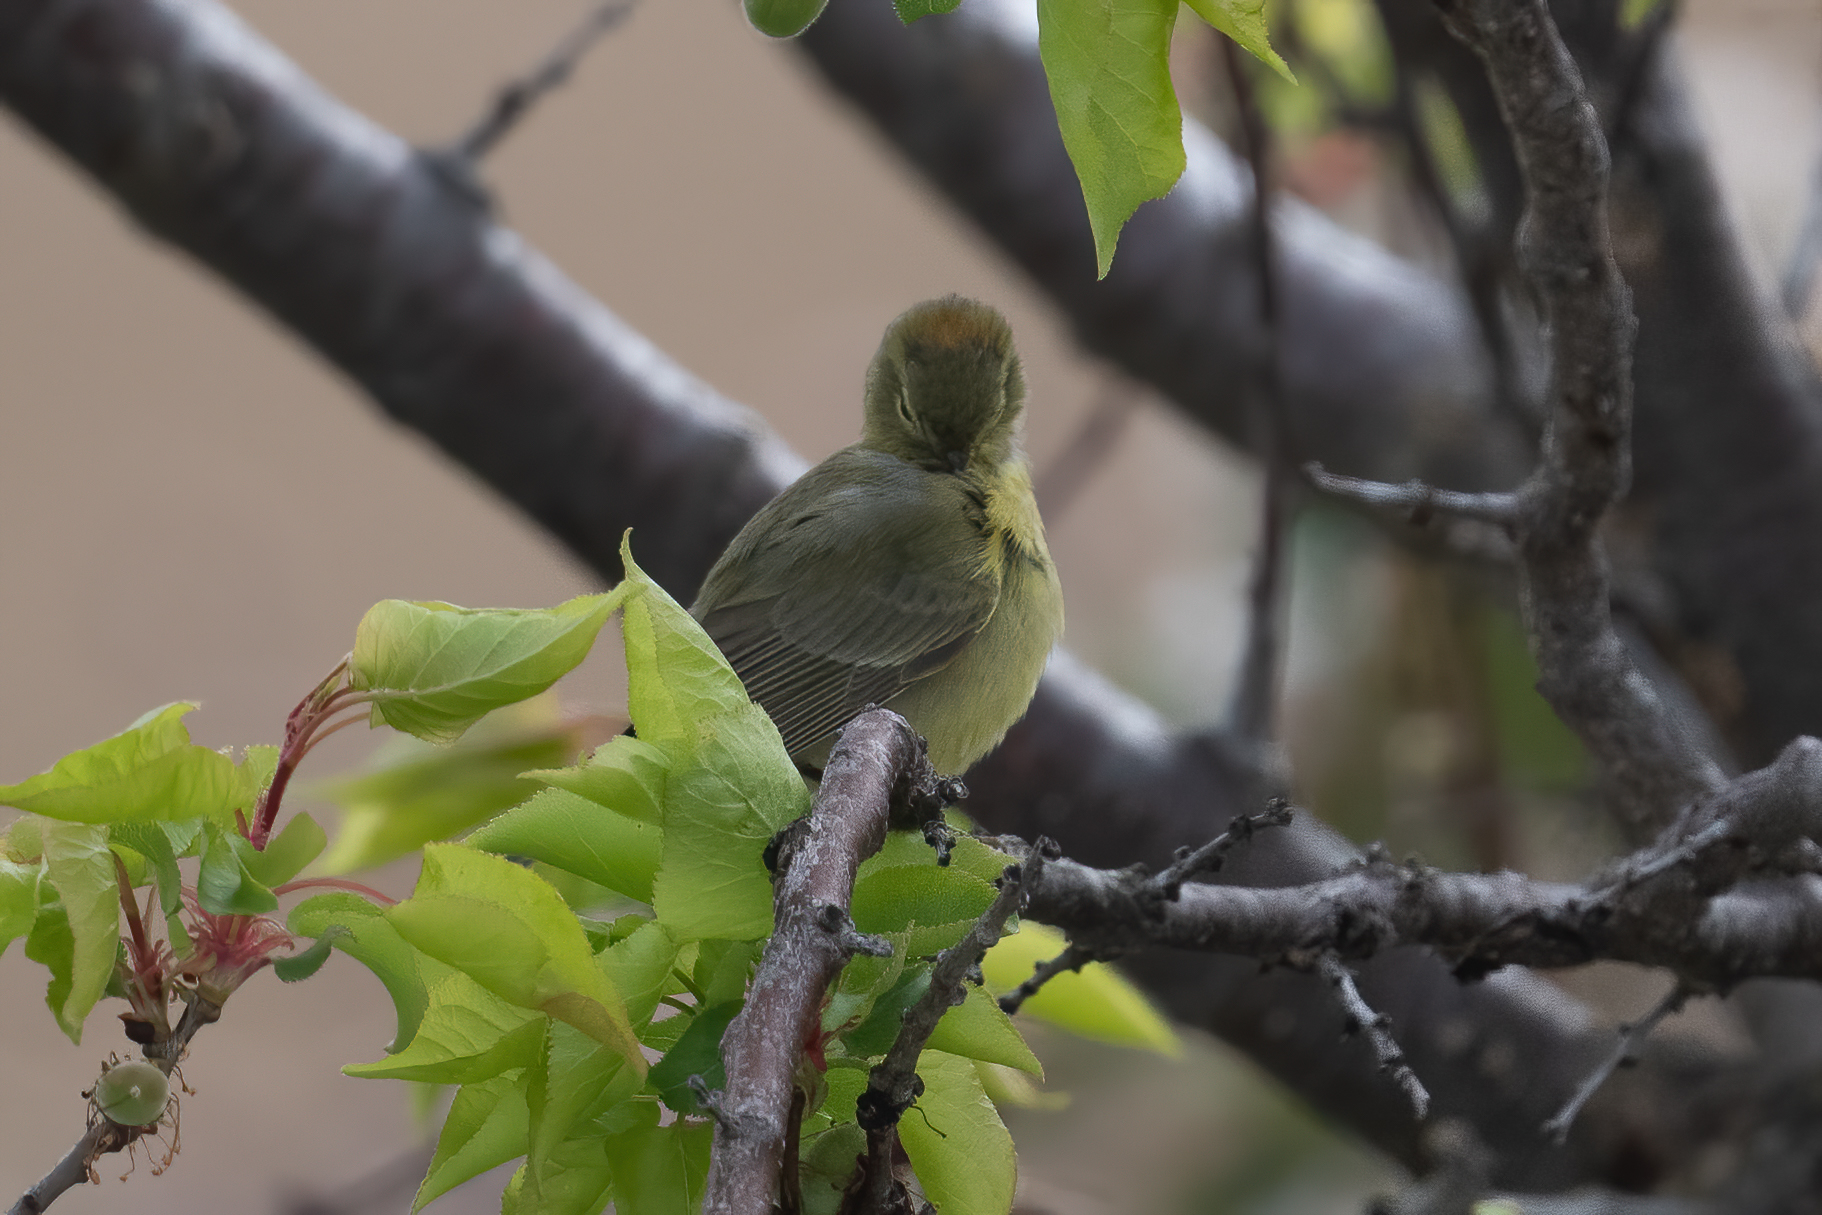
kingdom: Animalia
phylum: Chordata
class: Aves
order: Passeriformes
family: Parulidae
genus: Leiothlypis
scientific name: Leiothlypis celata
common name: Orange-crowned warbler
